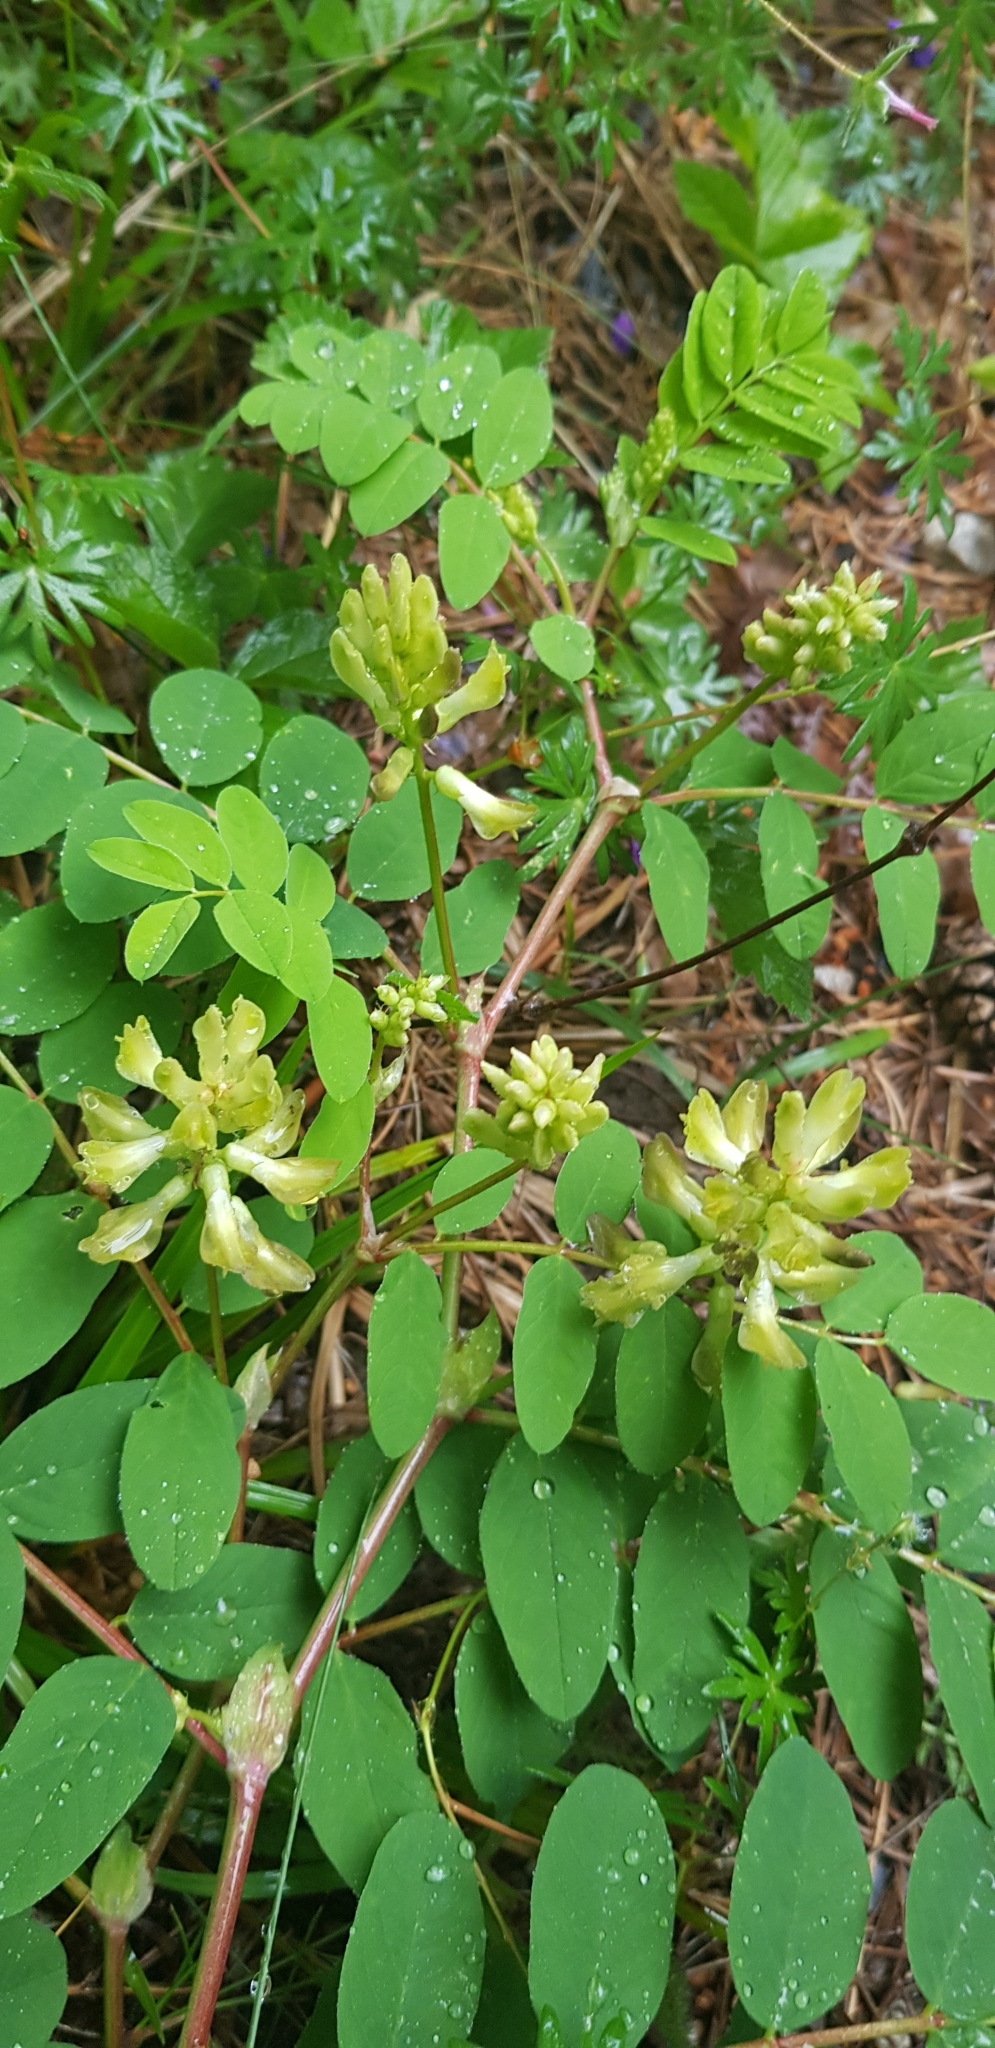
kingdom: Plantae
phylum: Tracheophyta
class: Magnoliopsida
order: Fabales
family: Fabaceae
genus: Astragalus
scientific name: Astragalus glycyphyllos
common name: Wild liquorice
